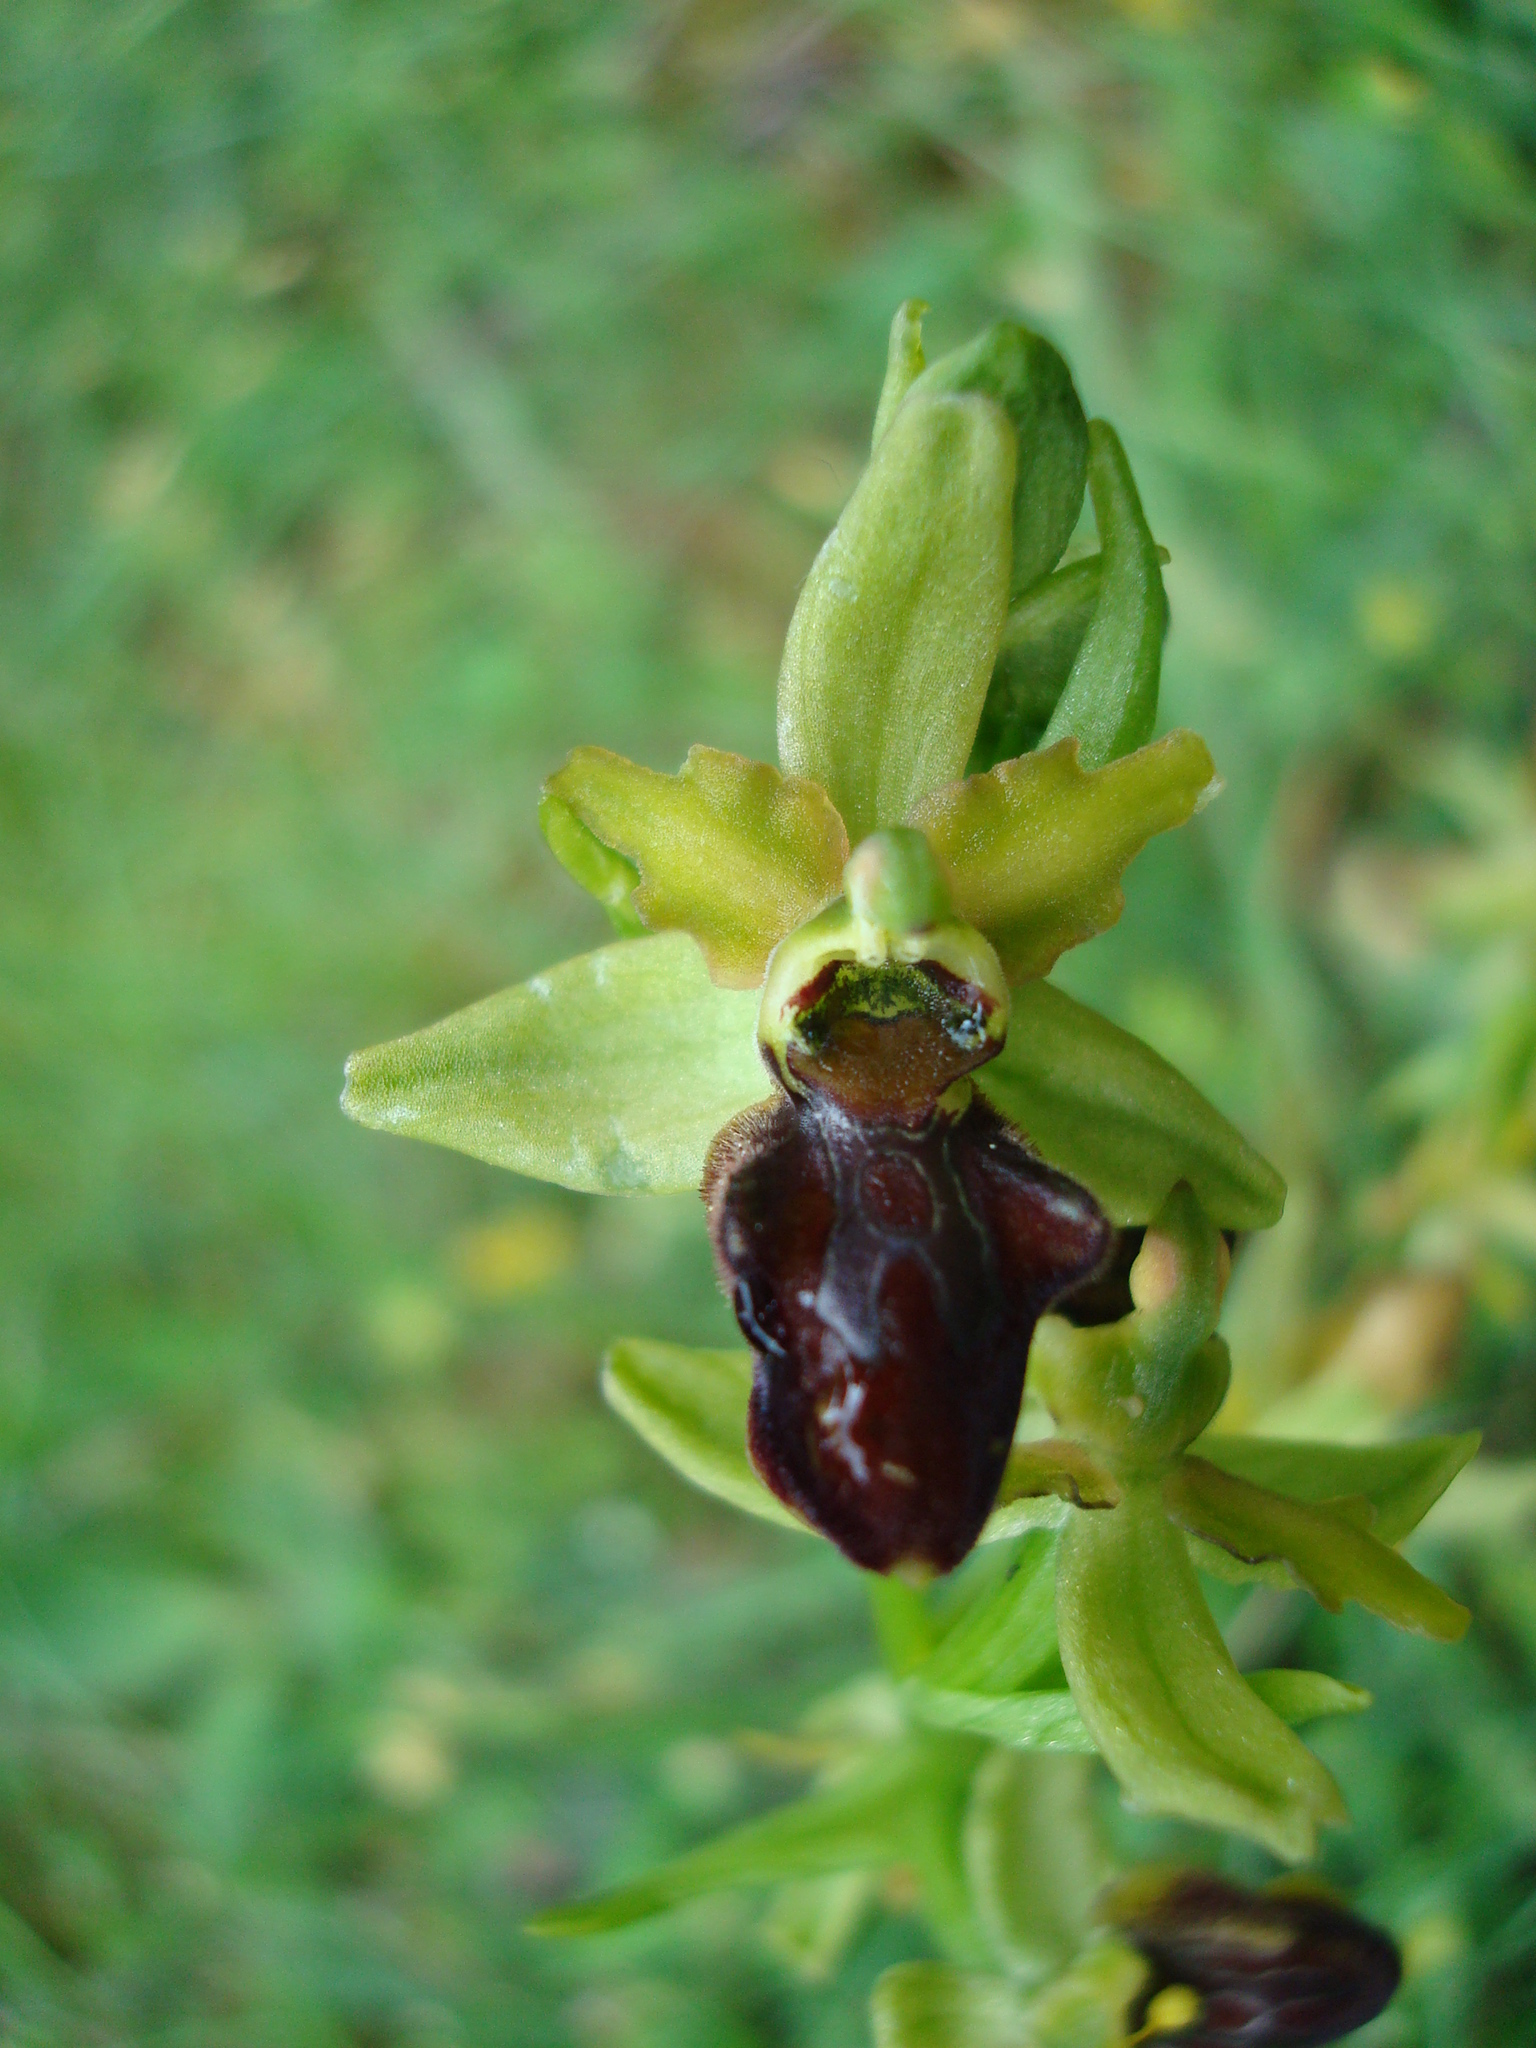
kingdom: Plantae
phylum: Tracheophyta
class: Liliopsida
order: Asparagales
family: Orchidaceae
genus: Ophrys
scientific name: Ophrys sphegodes
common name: Early spider-orchid
